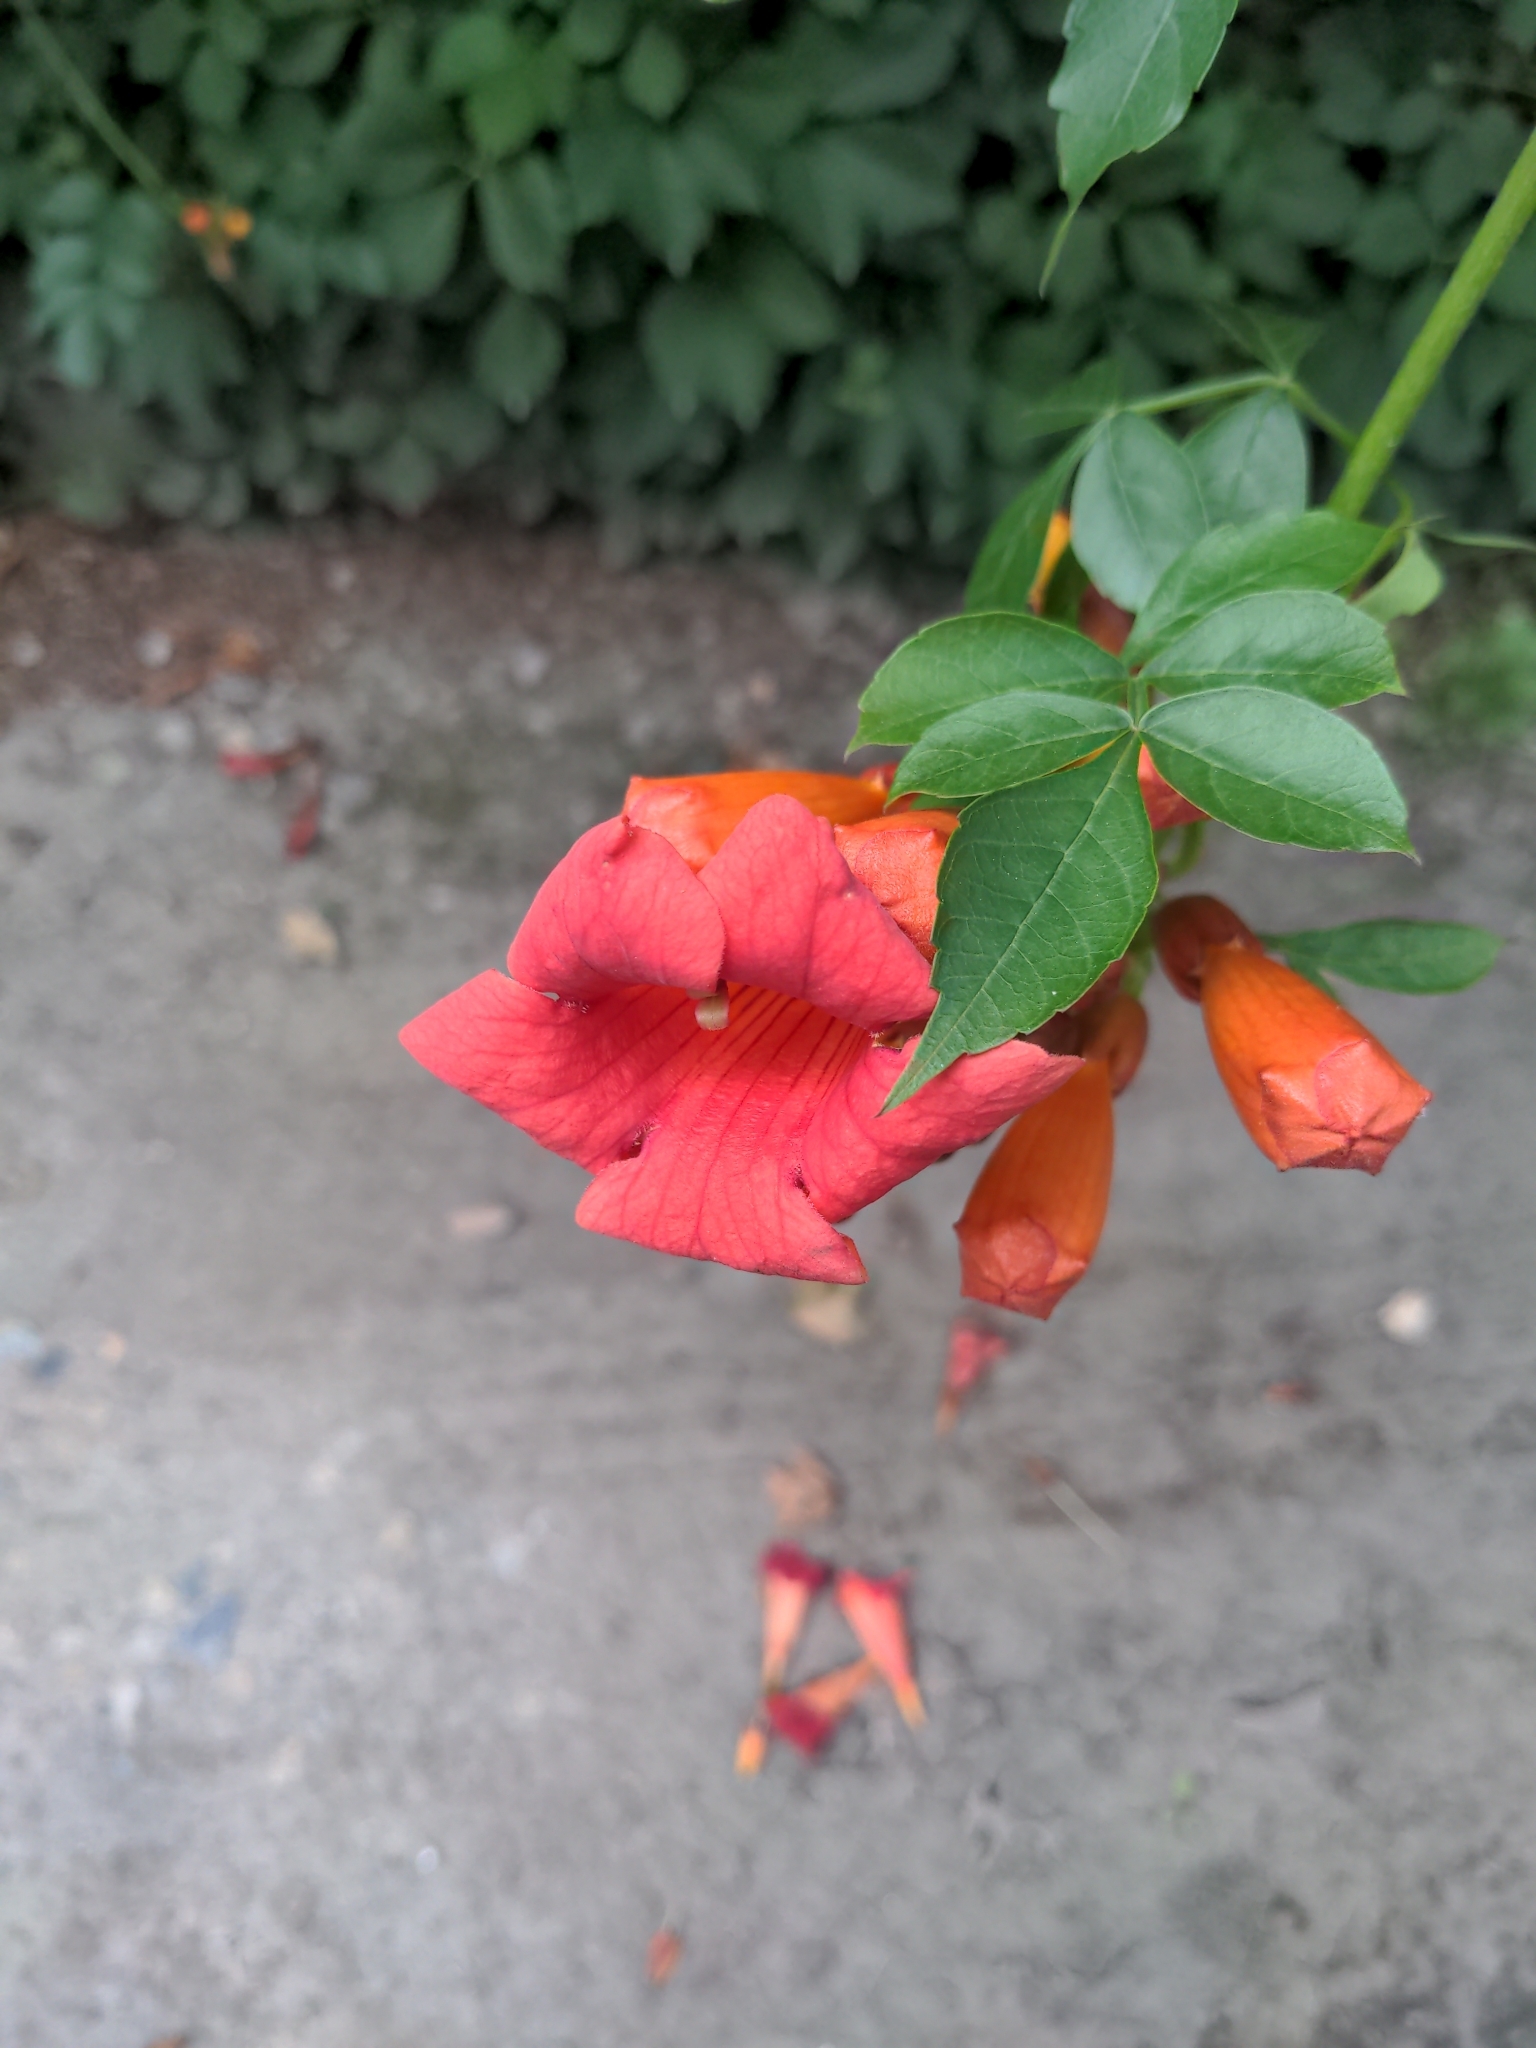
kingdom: Plantae
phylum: Tracheophyta
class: Magnoliopsida
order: Lamiales
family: Bignoniaceae
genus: Campsis
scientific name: Campsis radicans
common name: Trumpet-creeper
